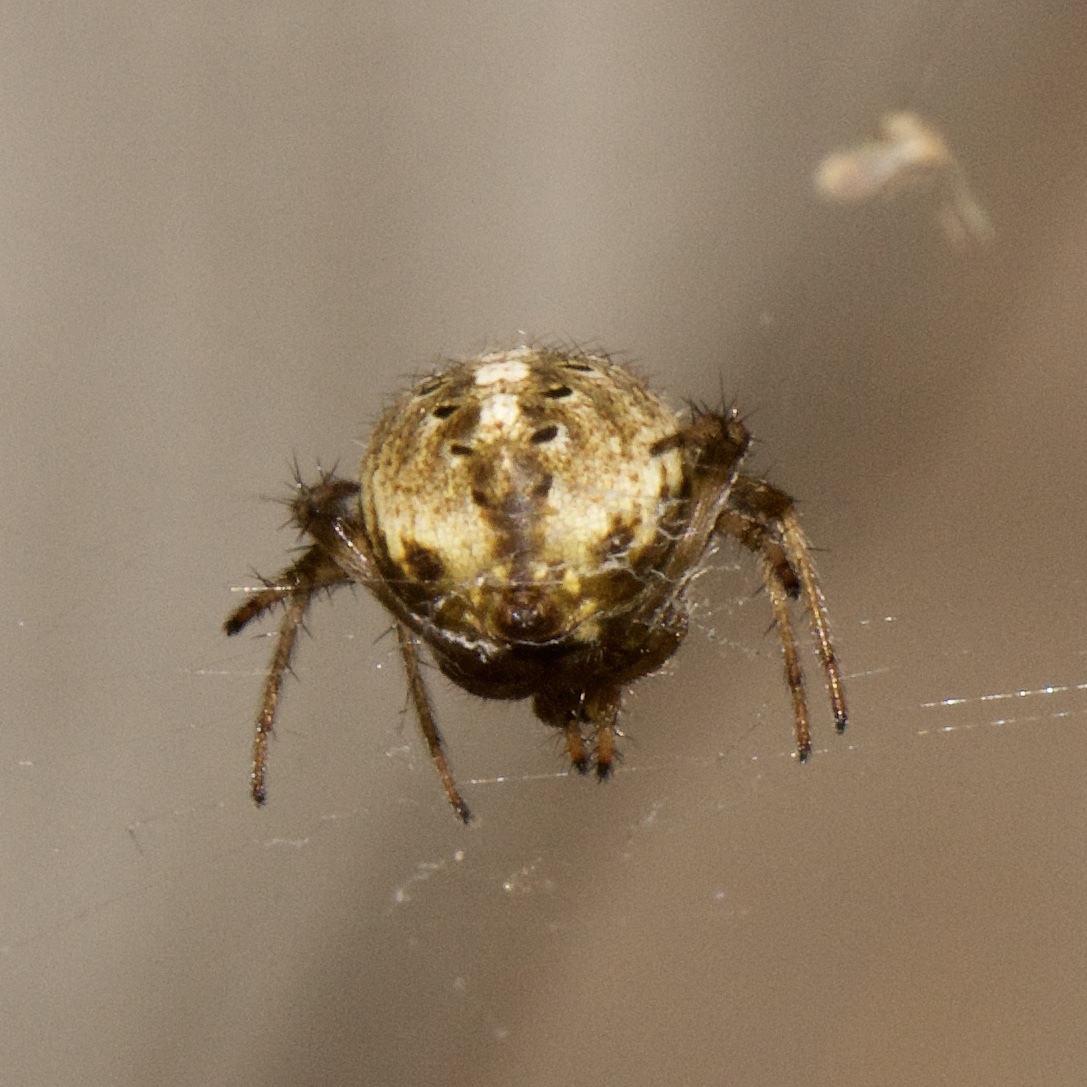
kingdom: Animalia
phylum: Arthropoda
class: Arachnida
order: Araneae
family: Araneidae
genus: Neoscona
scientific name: Neoscona arabesca
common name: Orb weavers
